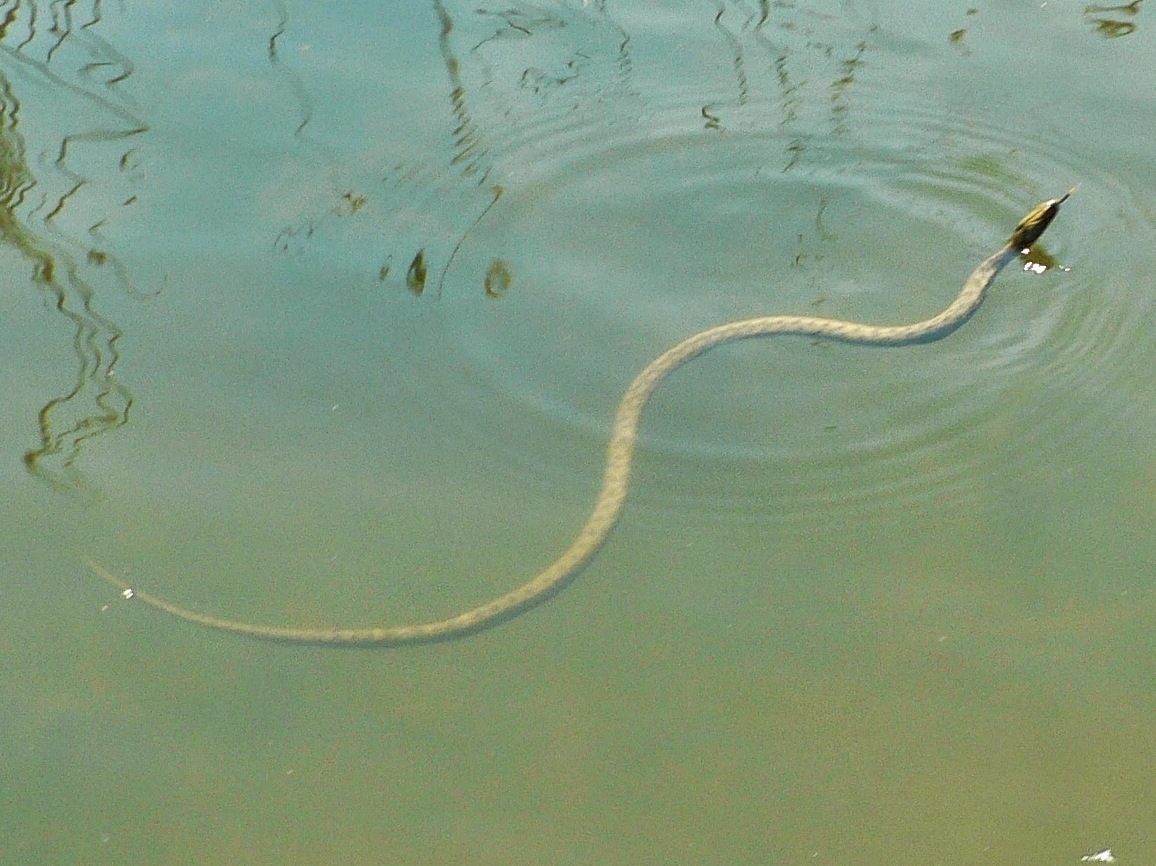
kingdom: Animalia
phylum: Chordata
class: Squamata
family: Colubridae
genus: Natrix
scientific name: Natrix tessellata
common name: Dice snake
